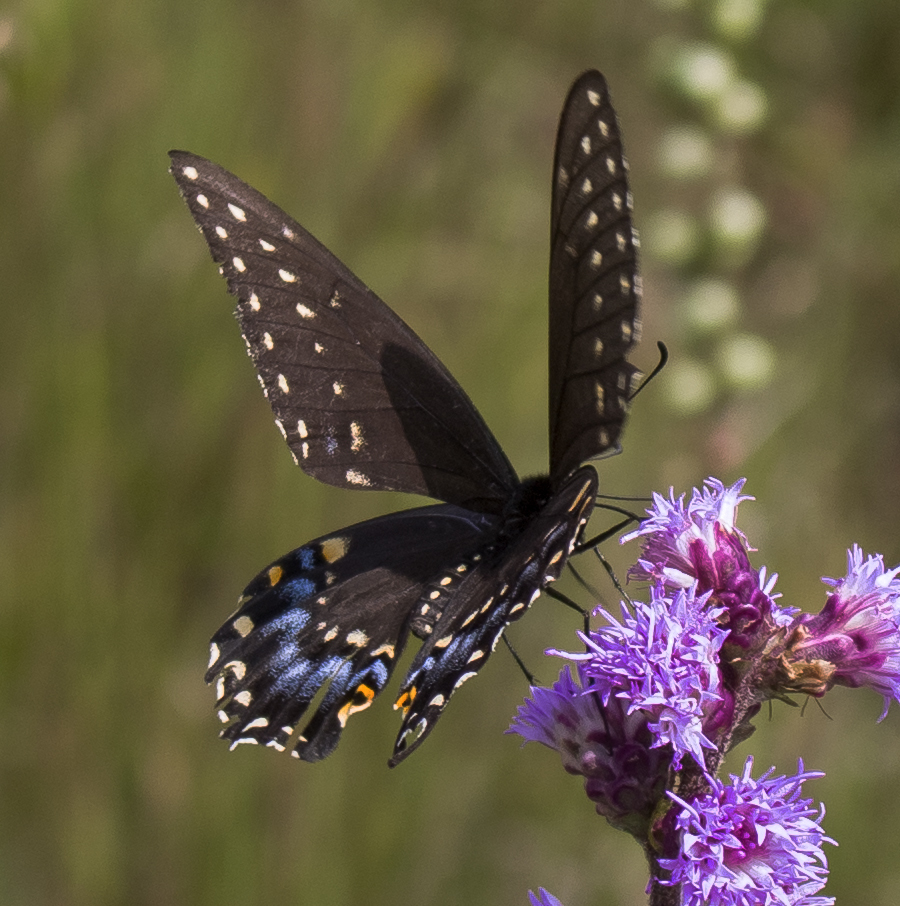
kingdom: Animalia
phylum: Arthropoda
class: Insecta
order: Lepidoptera
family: Papilionidae
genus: Papilio
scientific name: Papilio polyxenes
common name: Black swallowtail
